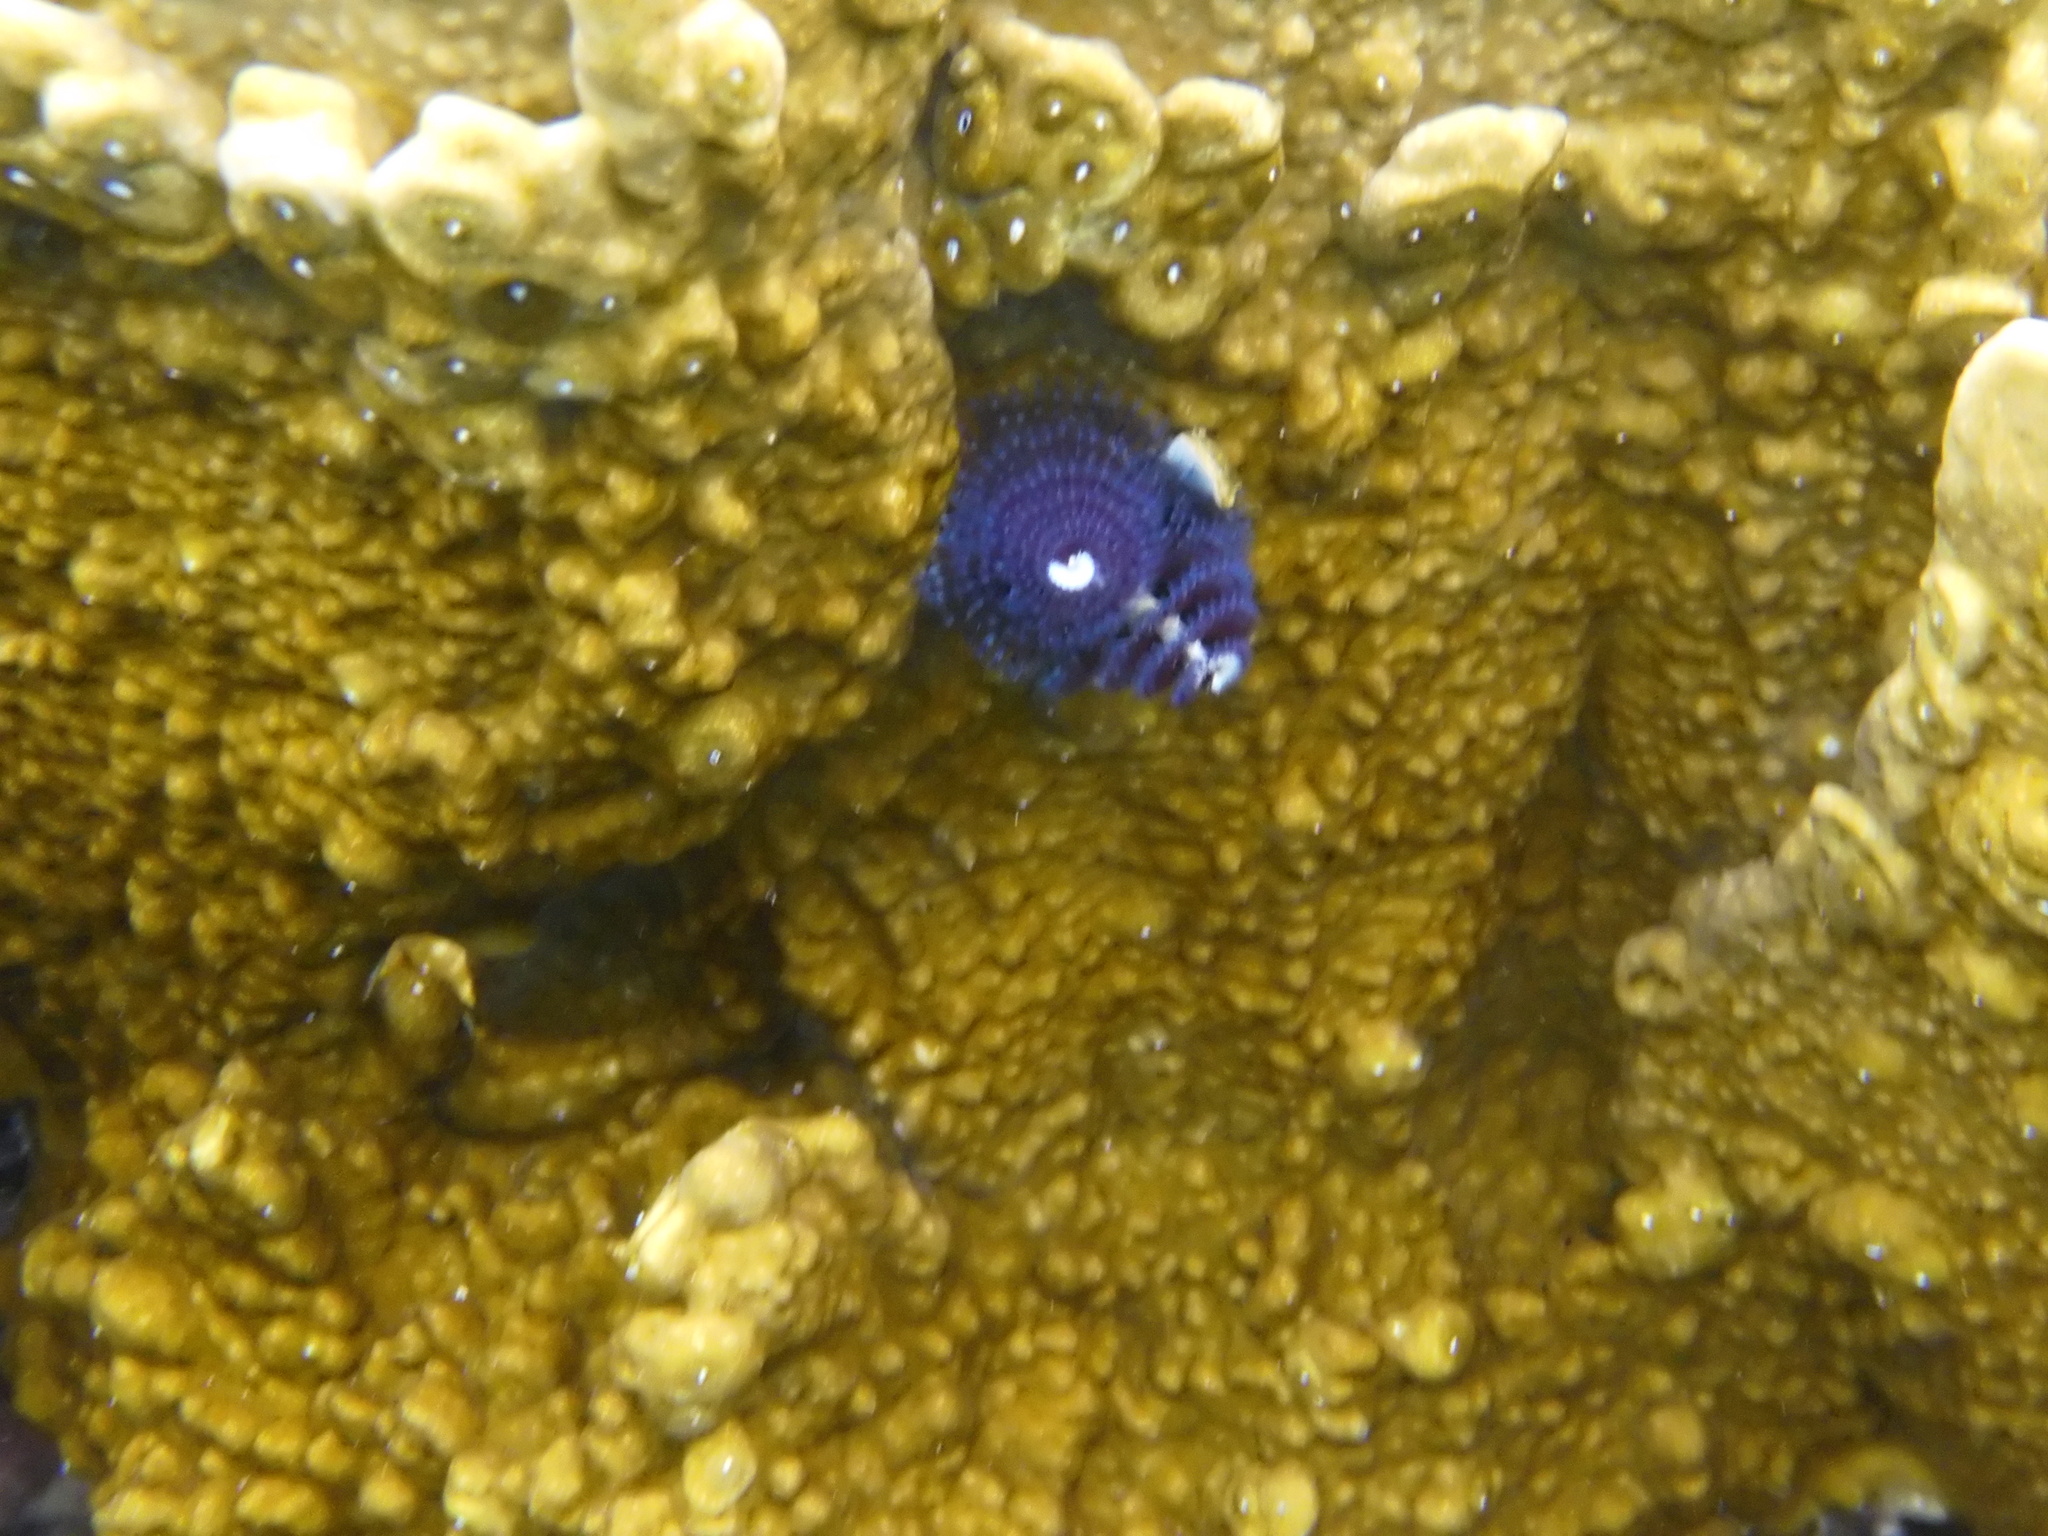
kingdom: Animalia
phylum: Annelida
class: Polychaeta
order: Sabellida
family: Serpulidae
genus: Spirobranchus
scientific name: Spirobranchus
